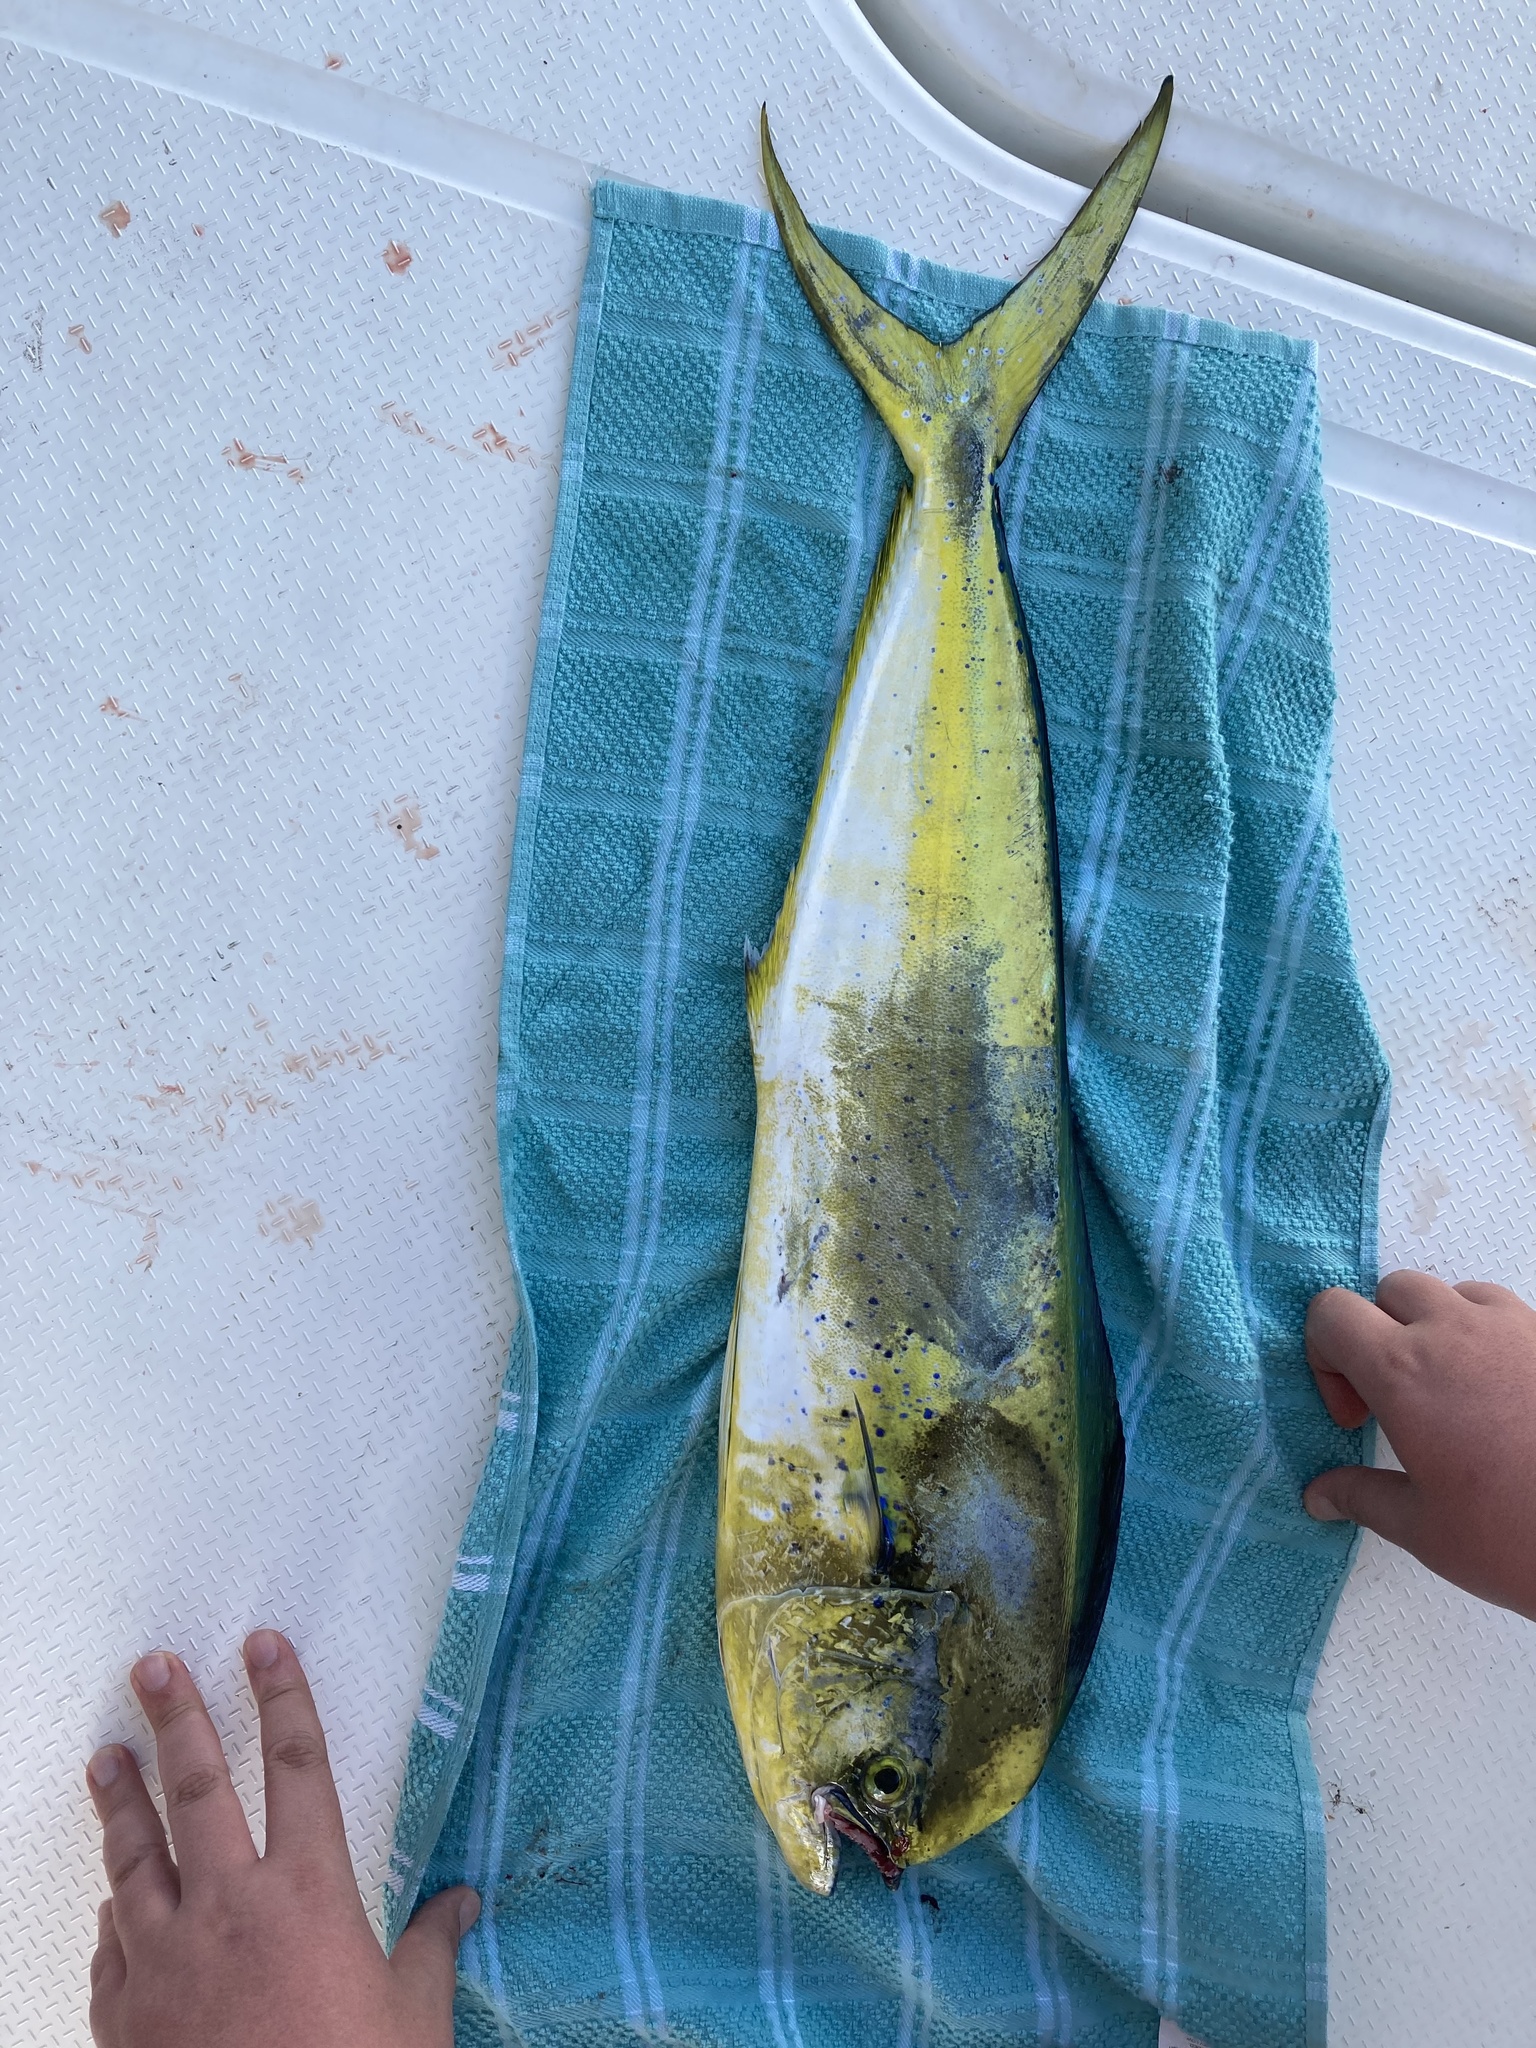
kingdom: Animalia
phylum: Chordata
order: Perciformes
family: Coryphaenidae
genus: Coryphaena
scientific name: Coryphaena hippurus
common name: Dolphin
